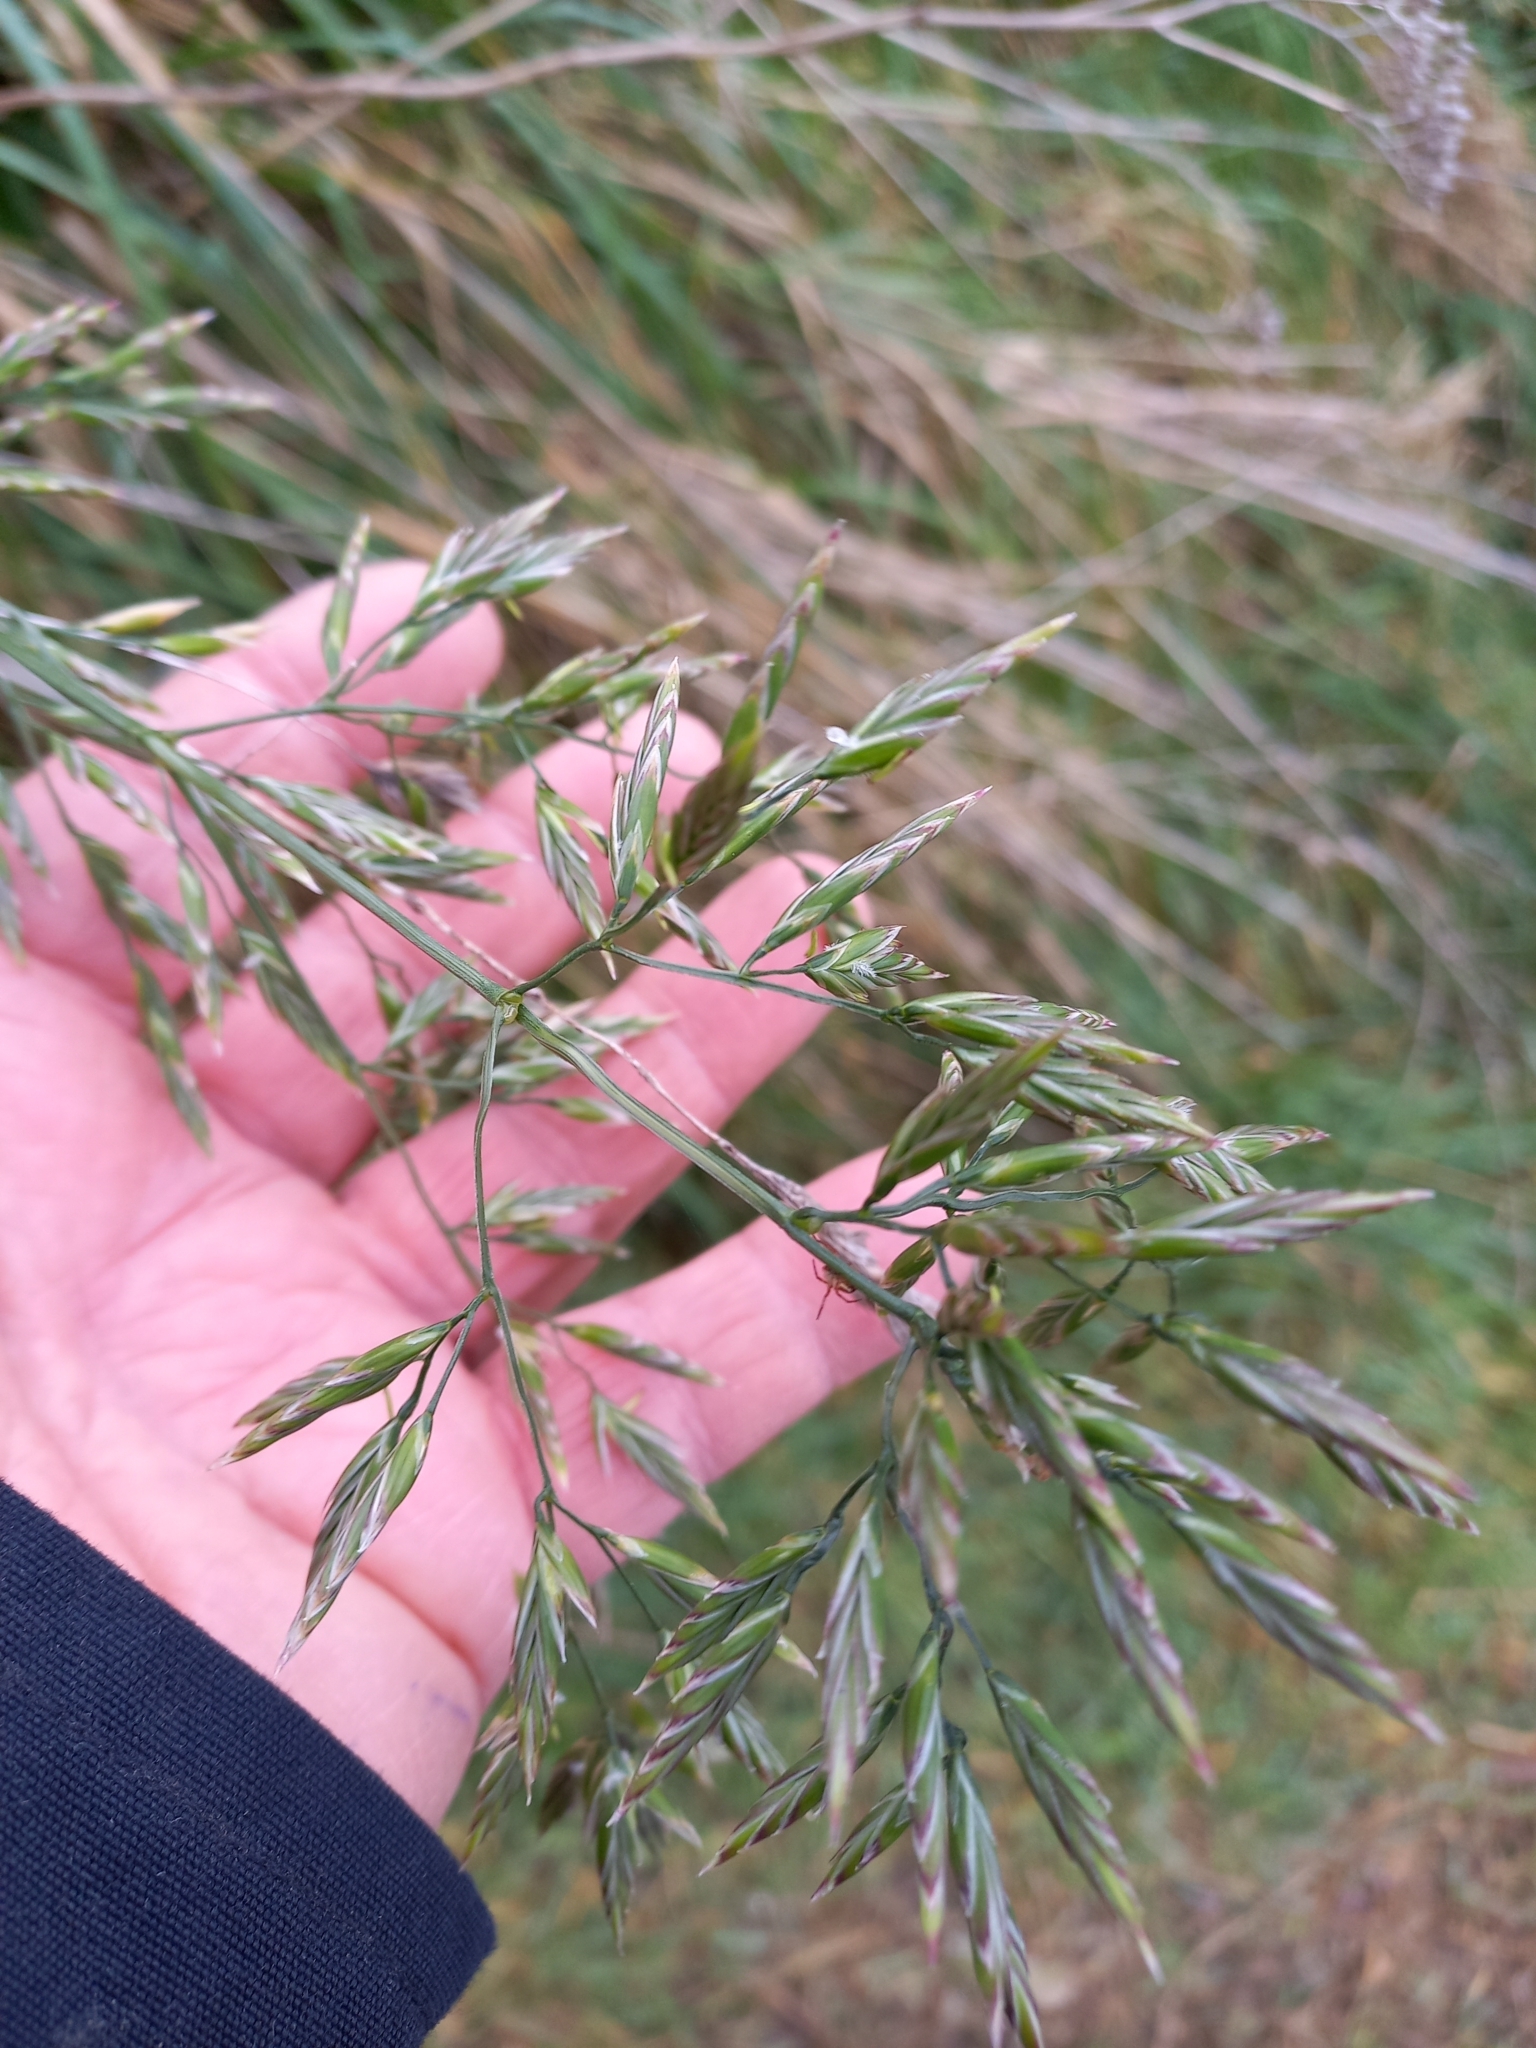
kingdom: Plantae
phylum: Tracheophyta
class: Liliopsida
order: Poales
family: Poaceae
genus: Lolium
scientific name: Lolium arundinaceum
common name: Reed fescue
